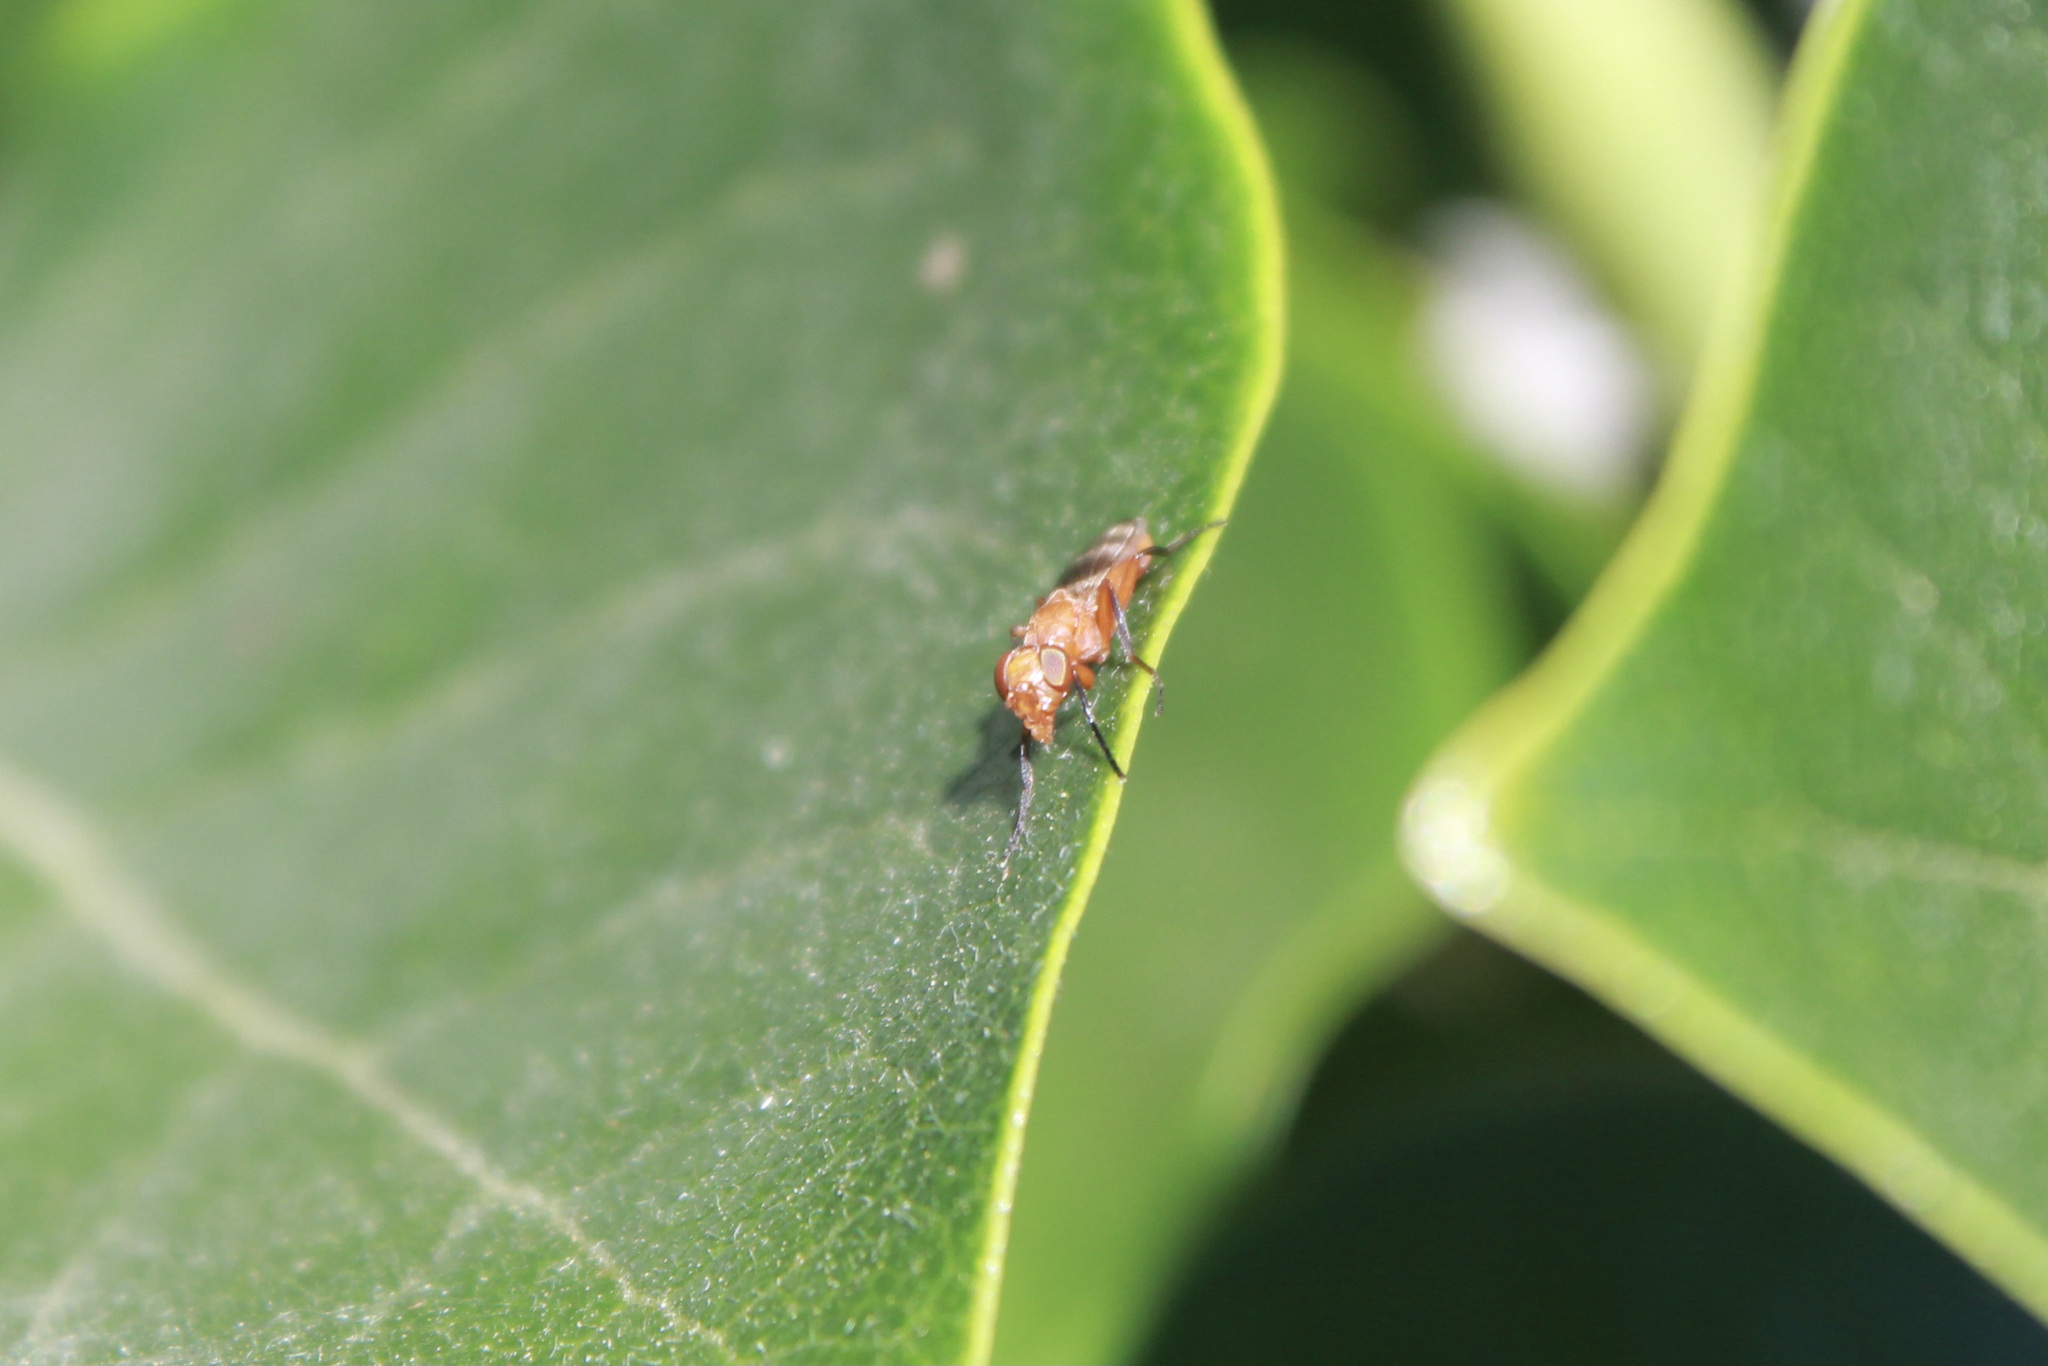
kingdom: Animalia
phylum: Arthropoda
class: Insecta
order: Diptera
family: Ulidiidae
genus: Zacompsia
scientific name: Zacompsia fulva
